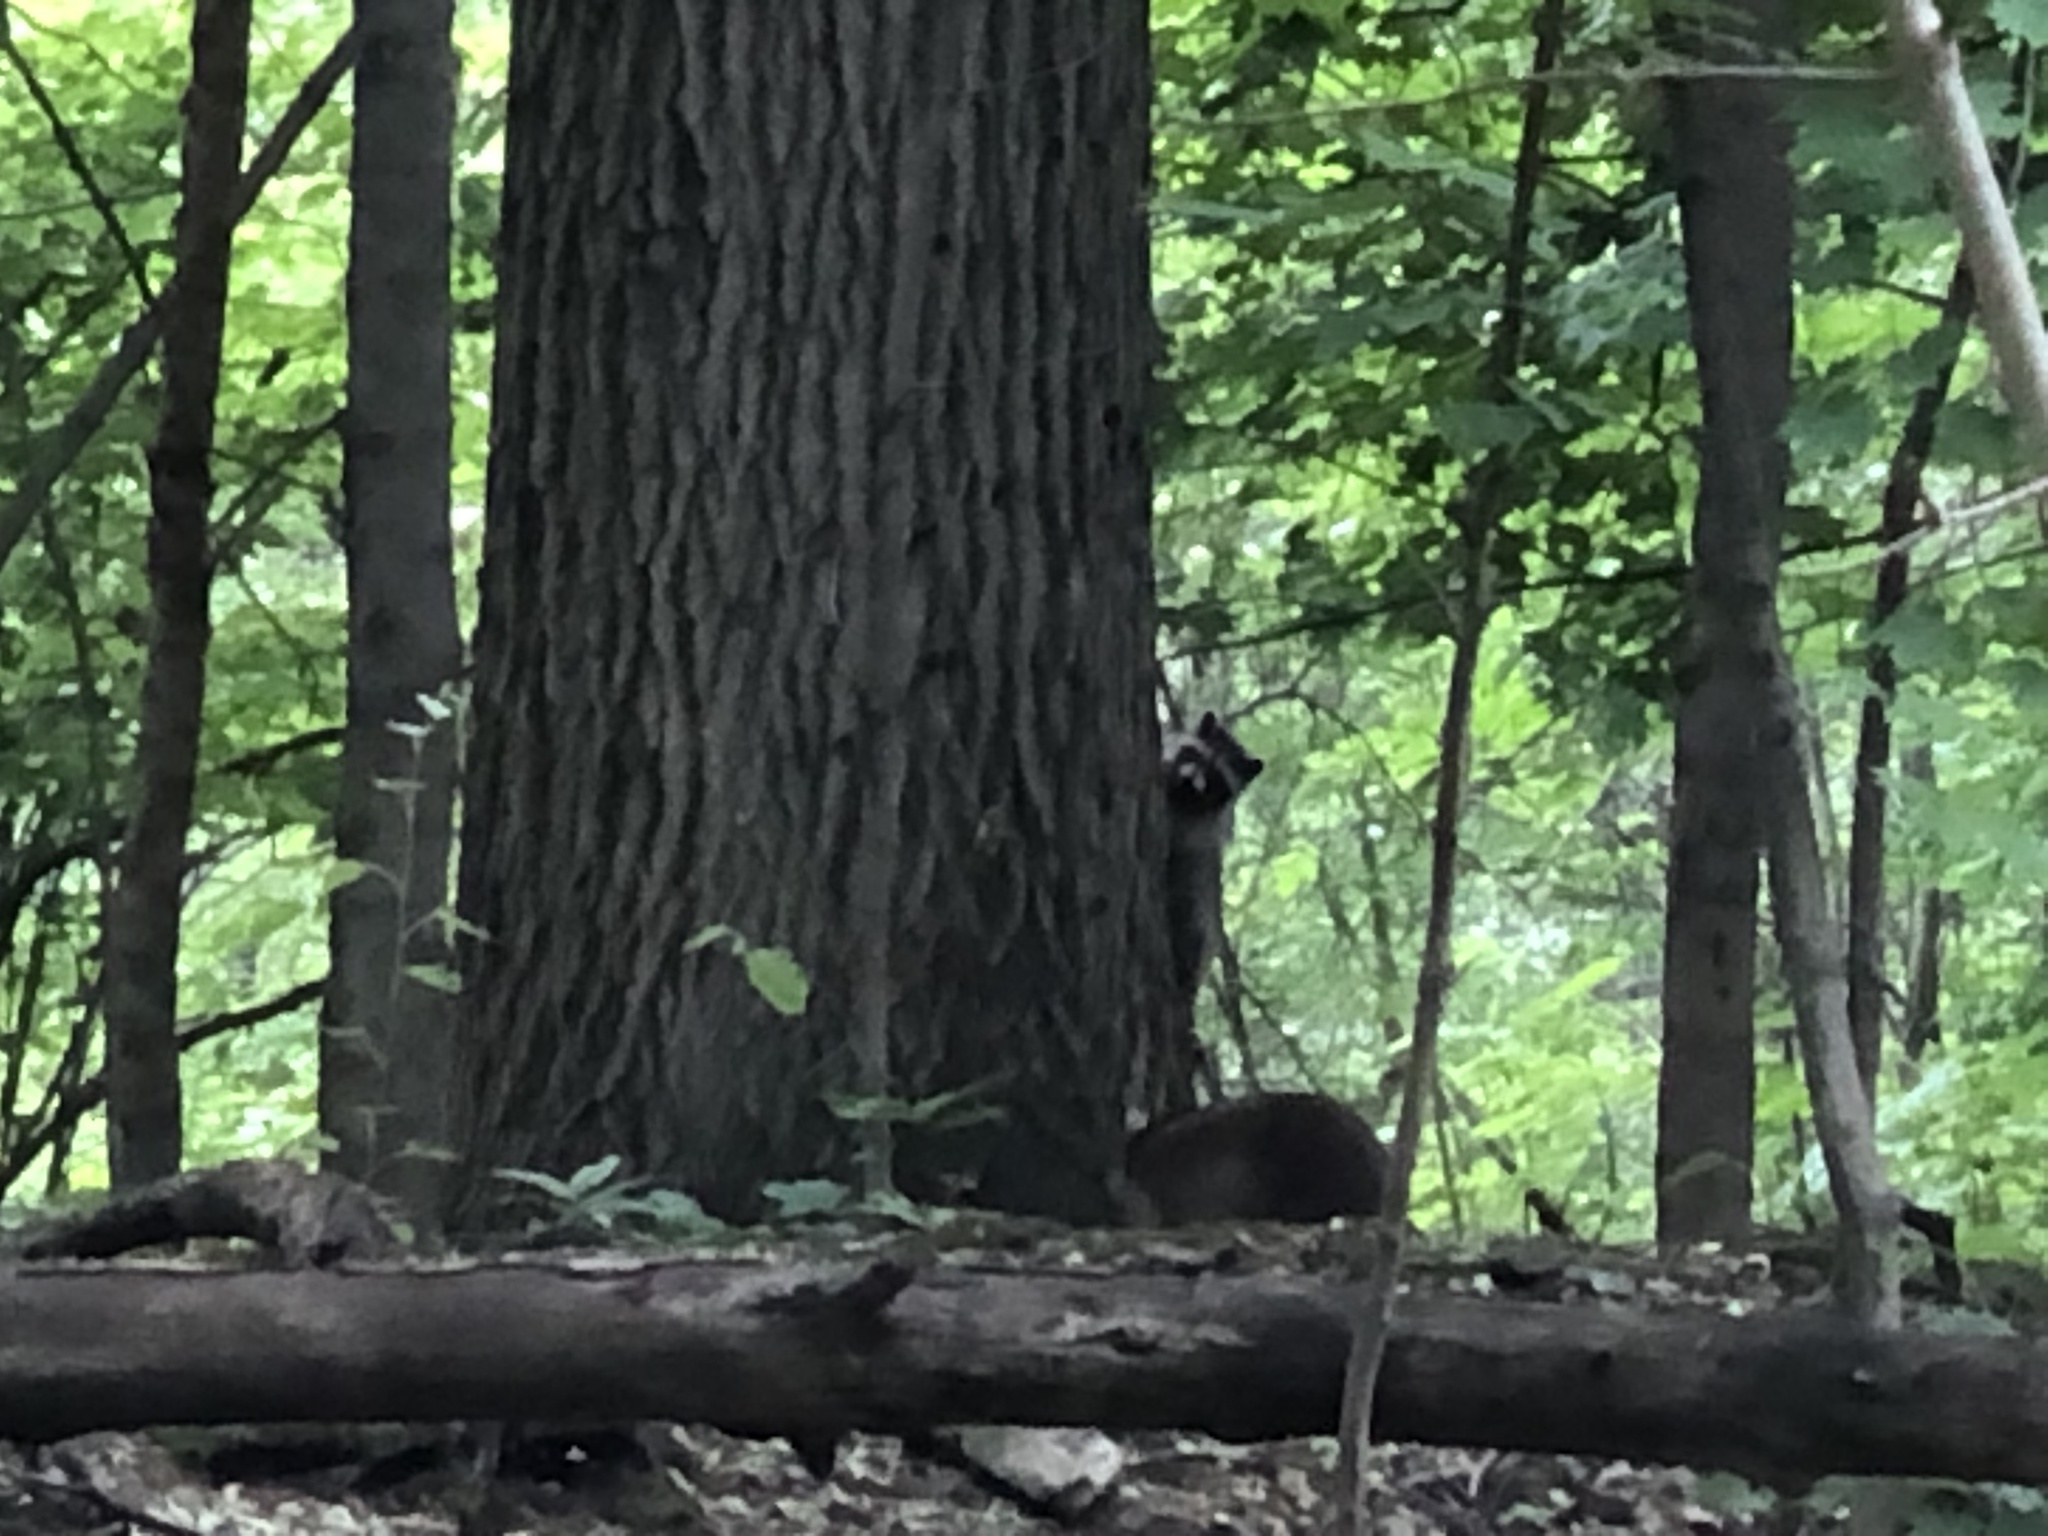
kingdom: Animalia
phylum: Chordata
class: Mammalia
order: Carnivora
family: Procyonidae
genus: Procyon
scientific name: Procyon lotor
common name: Raccoon
